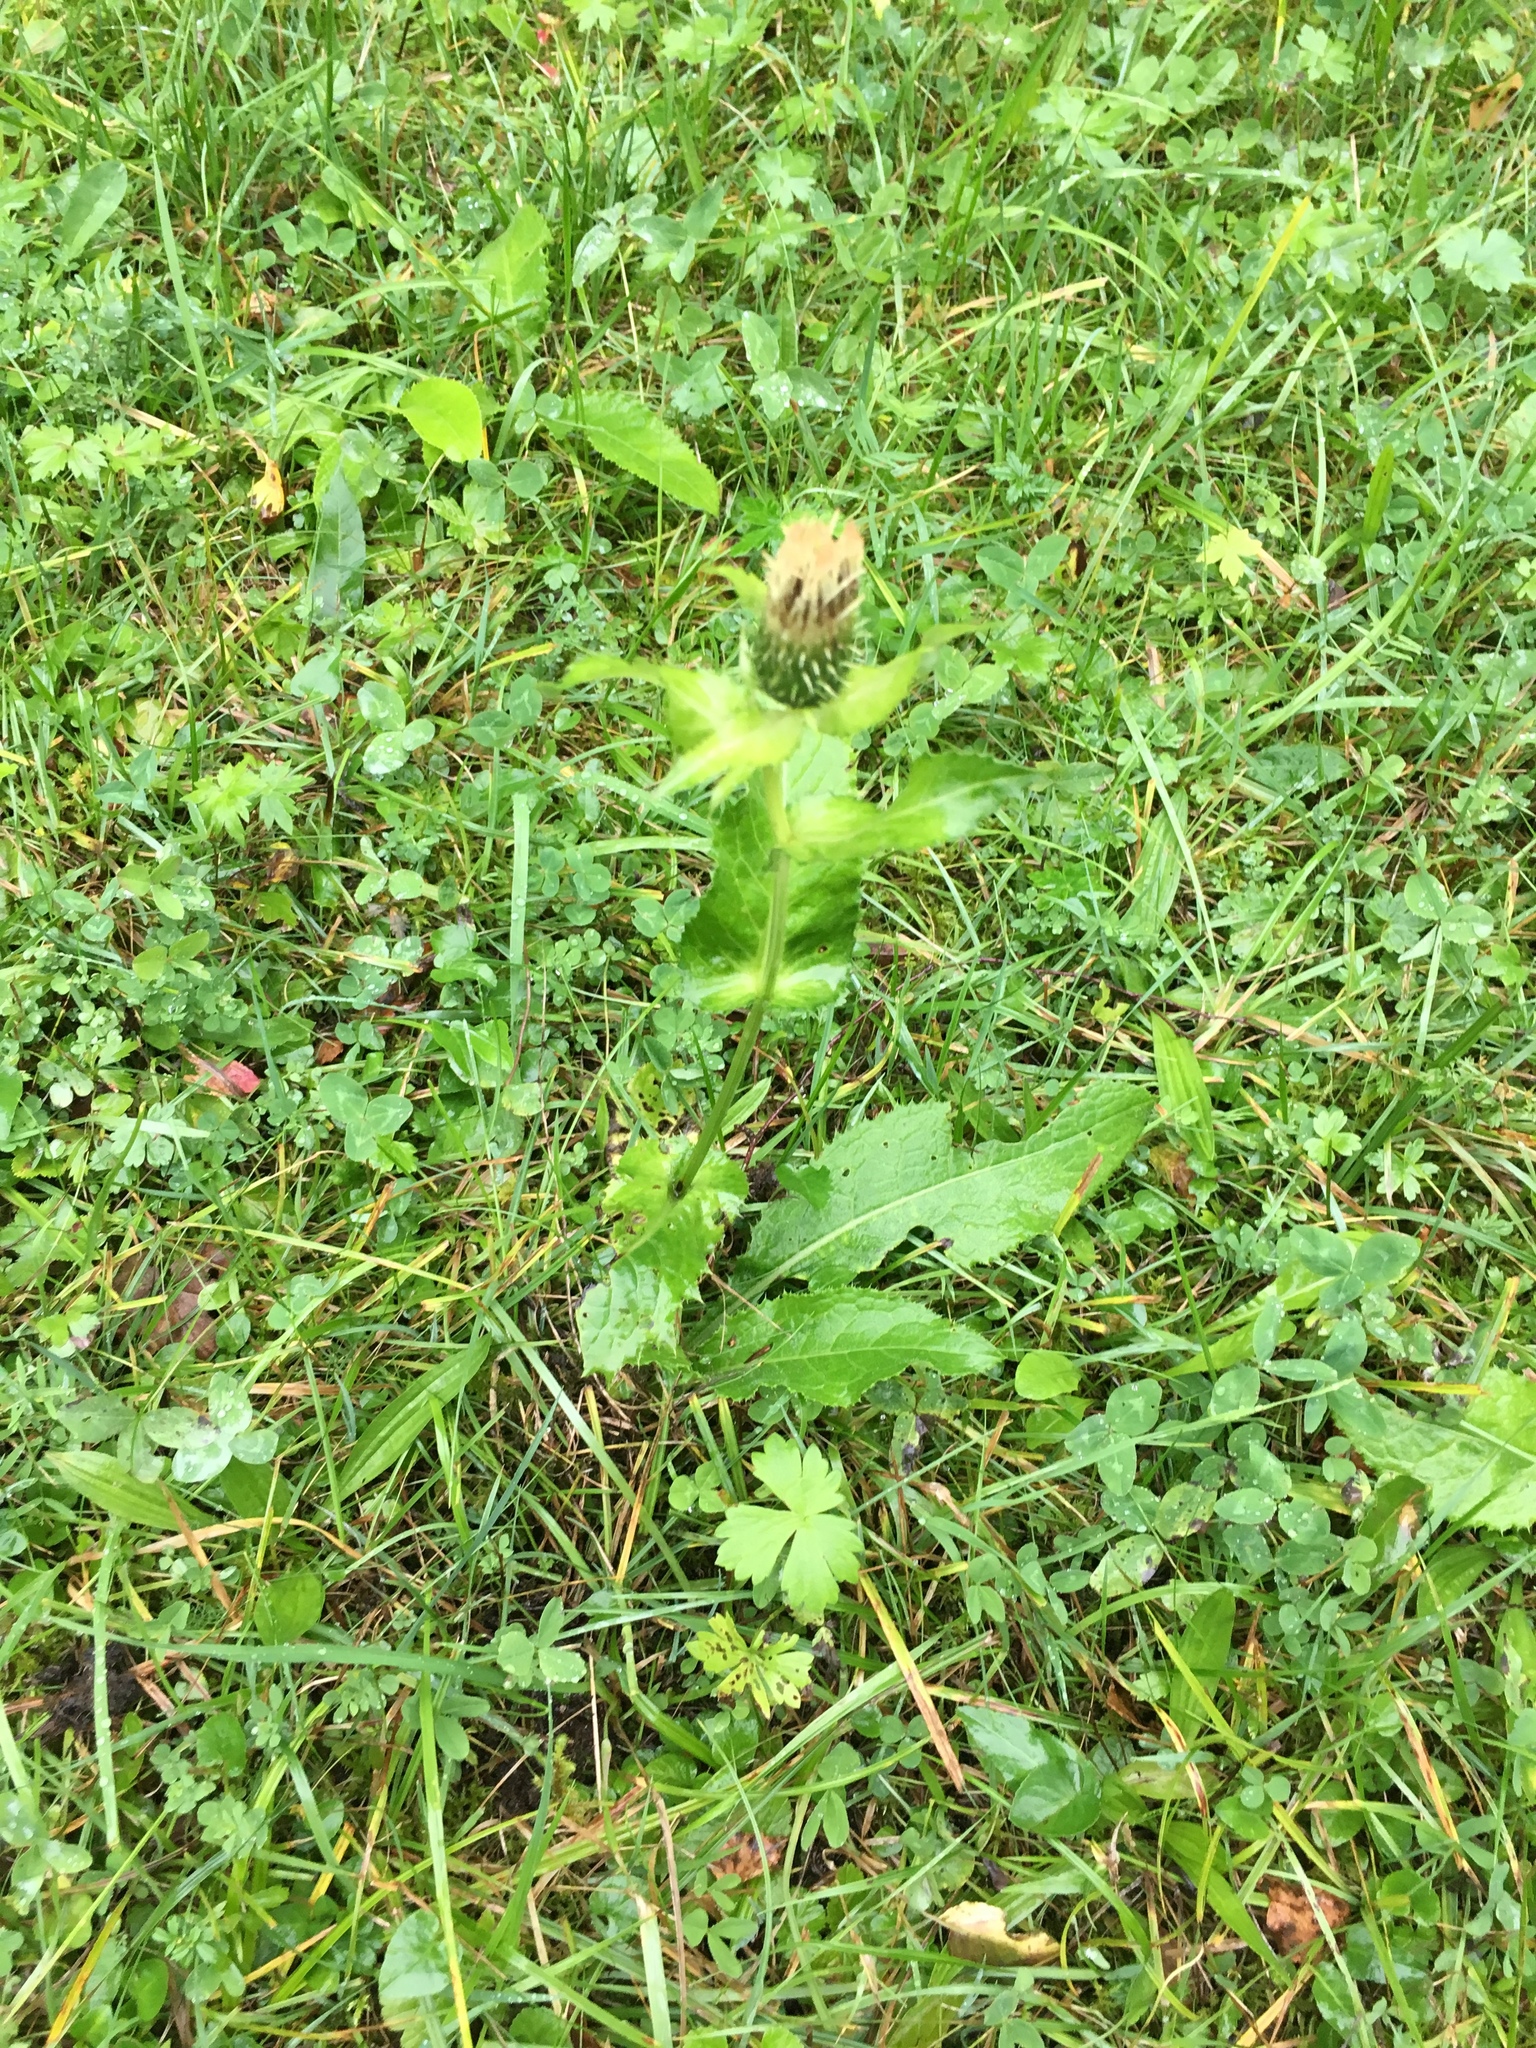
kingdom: Plantae
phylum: Tracheophyta
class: Magnoliopsida
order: Asterales
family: Asteraceae
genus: Cirsium
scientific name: Cirsium oleraceum
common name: Cabbage thistle
